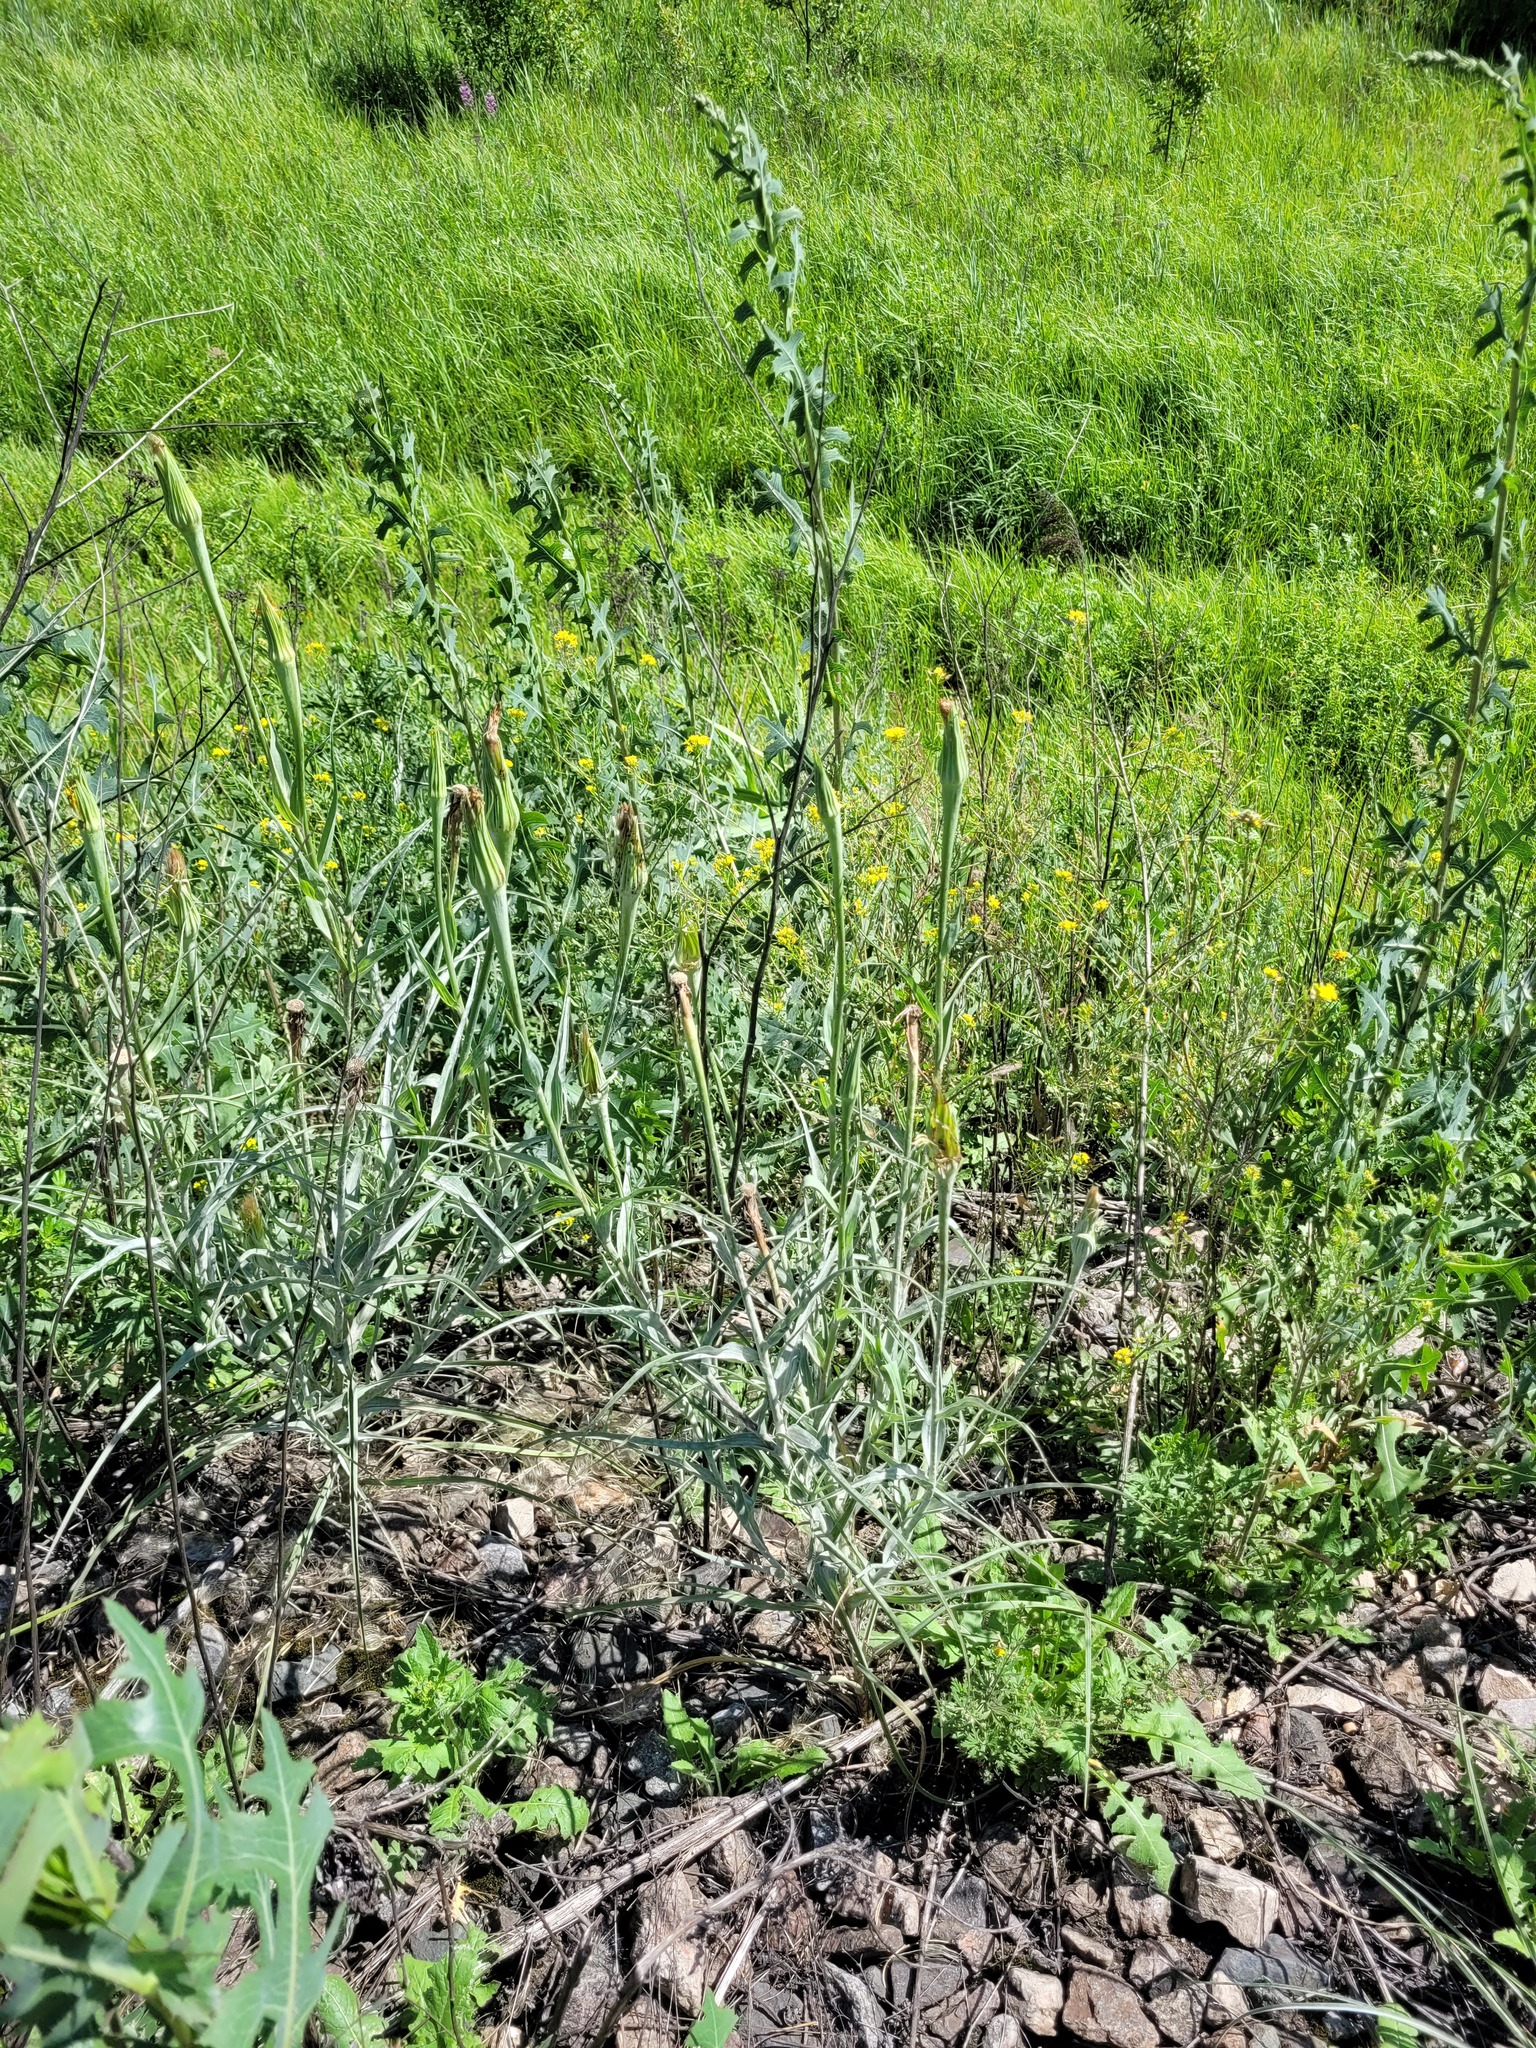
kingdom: Plantae
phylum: Tracheophyta
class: Magnoliopsida
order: Asterales
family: Asteraceae
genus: Tragopogon
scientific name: Tragopogon dubius
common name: Yellow salsify
